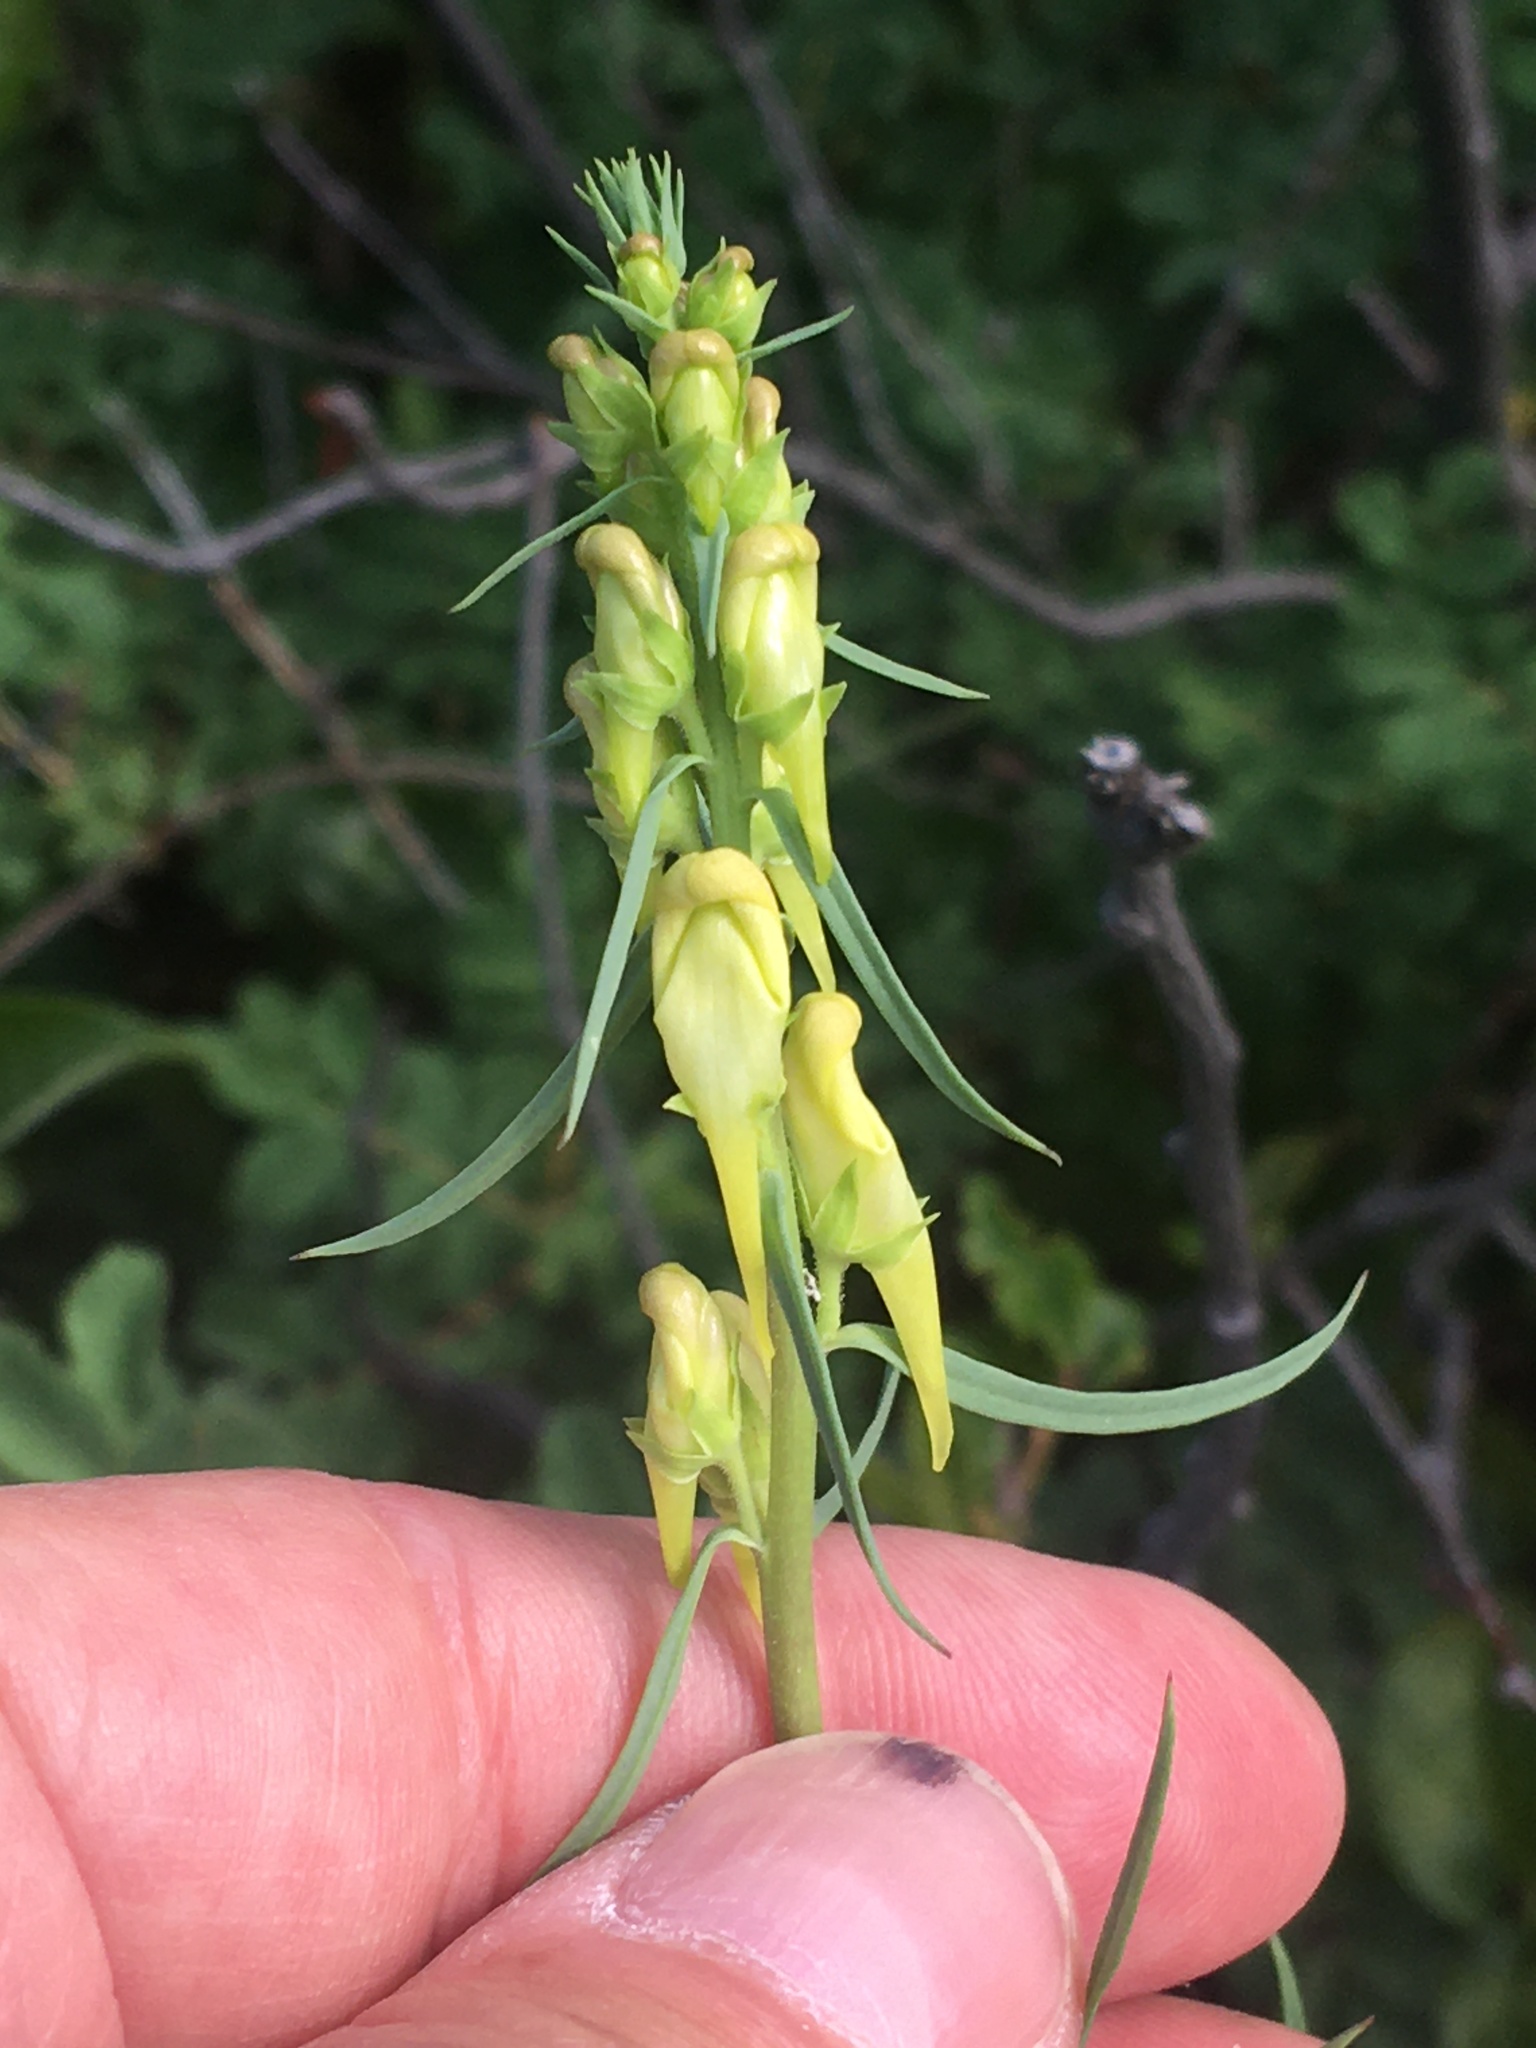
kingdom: Plantae
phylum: Tracheophyta
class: Magnoliopsida
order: Lamiales
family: Plantaginaceae
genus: Linaria
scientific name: Linaria vulgaris
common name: Butter and eggs
